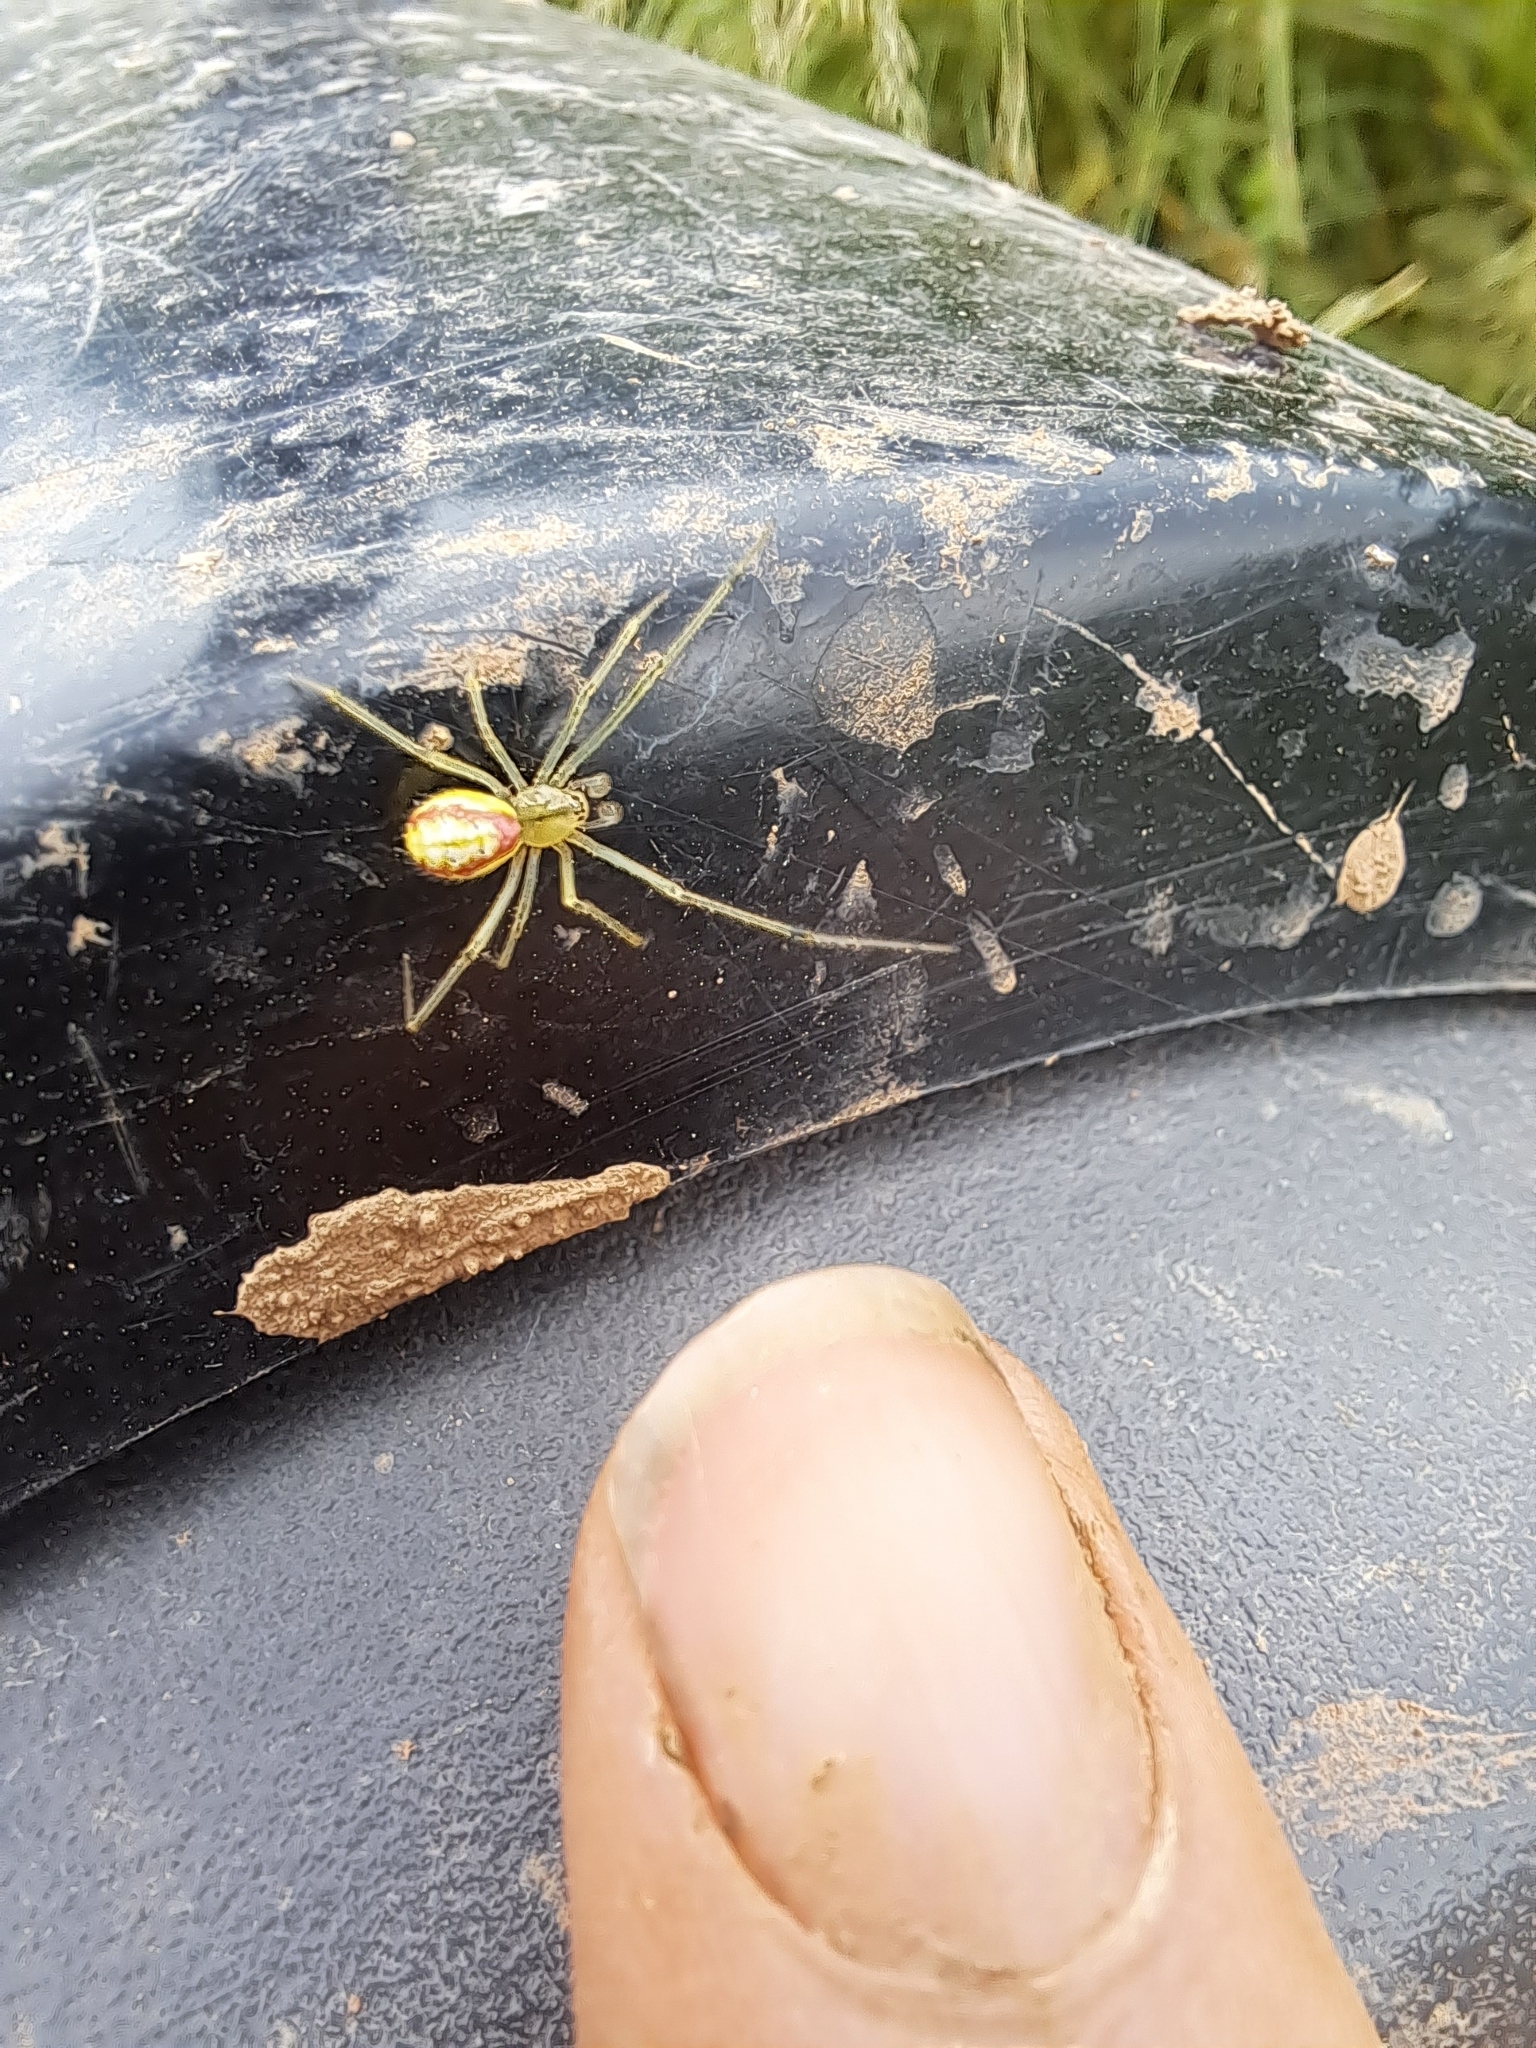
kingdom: Animalia
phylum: Arthropoda
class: Arachnida
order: Araneae
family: Theridiidae
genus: Enoplognatha
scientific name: Enoplognatha ovata
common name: Common candy-striped spider
